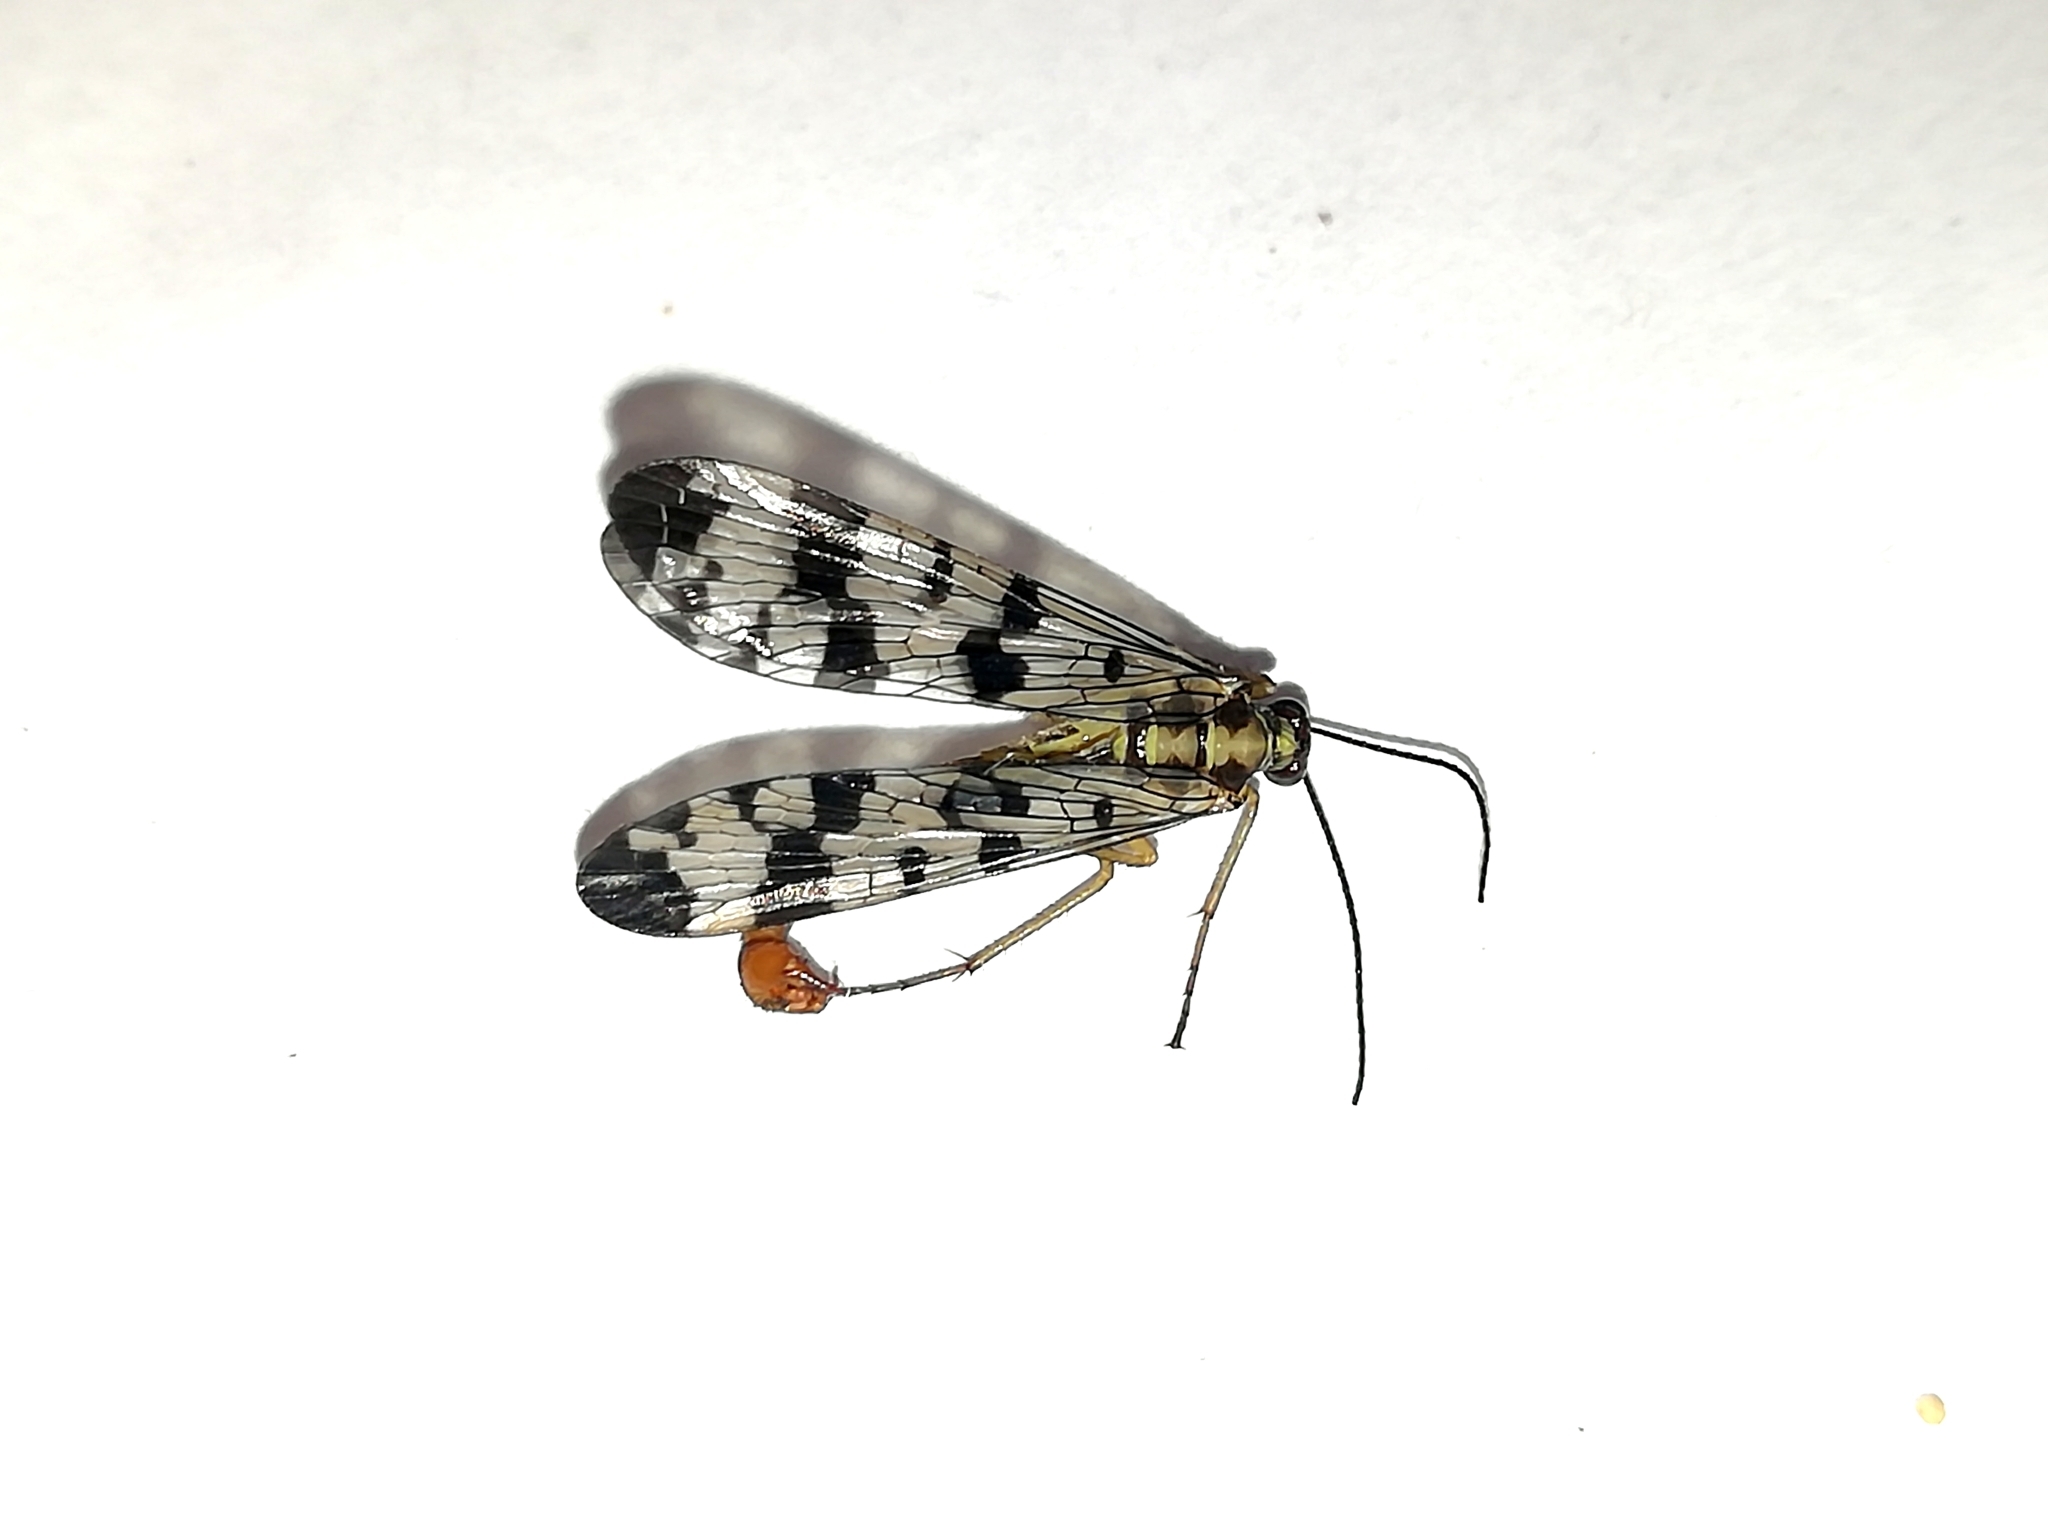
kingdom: Animalia
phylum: Arthropoda
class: Insecta
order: Mecoptera
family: Panorpidae
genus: Panorpa
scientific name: Panorpa communis
